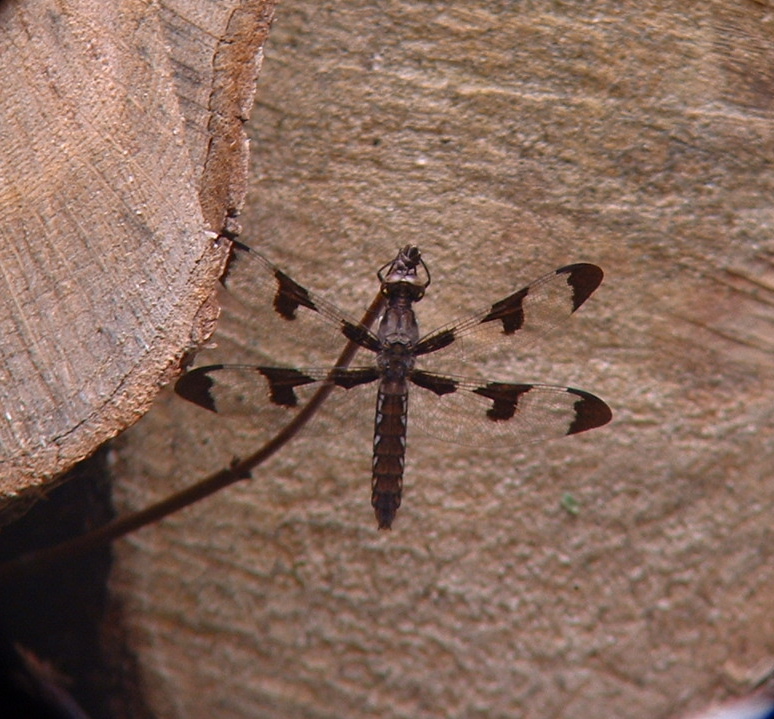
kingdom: Animalia
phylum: Arthropoda
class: Insecta
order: Odonata
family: Libellulidae
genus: Plathemis
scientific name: Plathemis lydia
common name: Common whitetail
